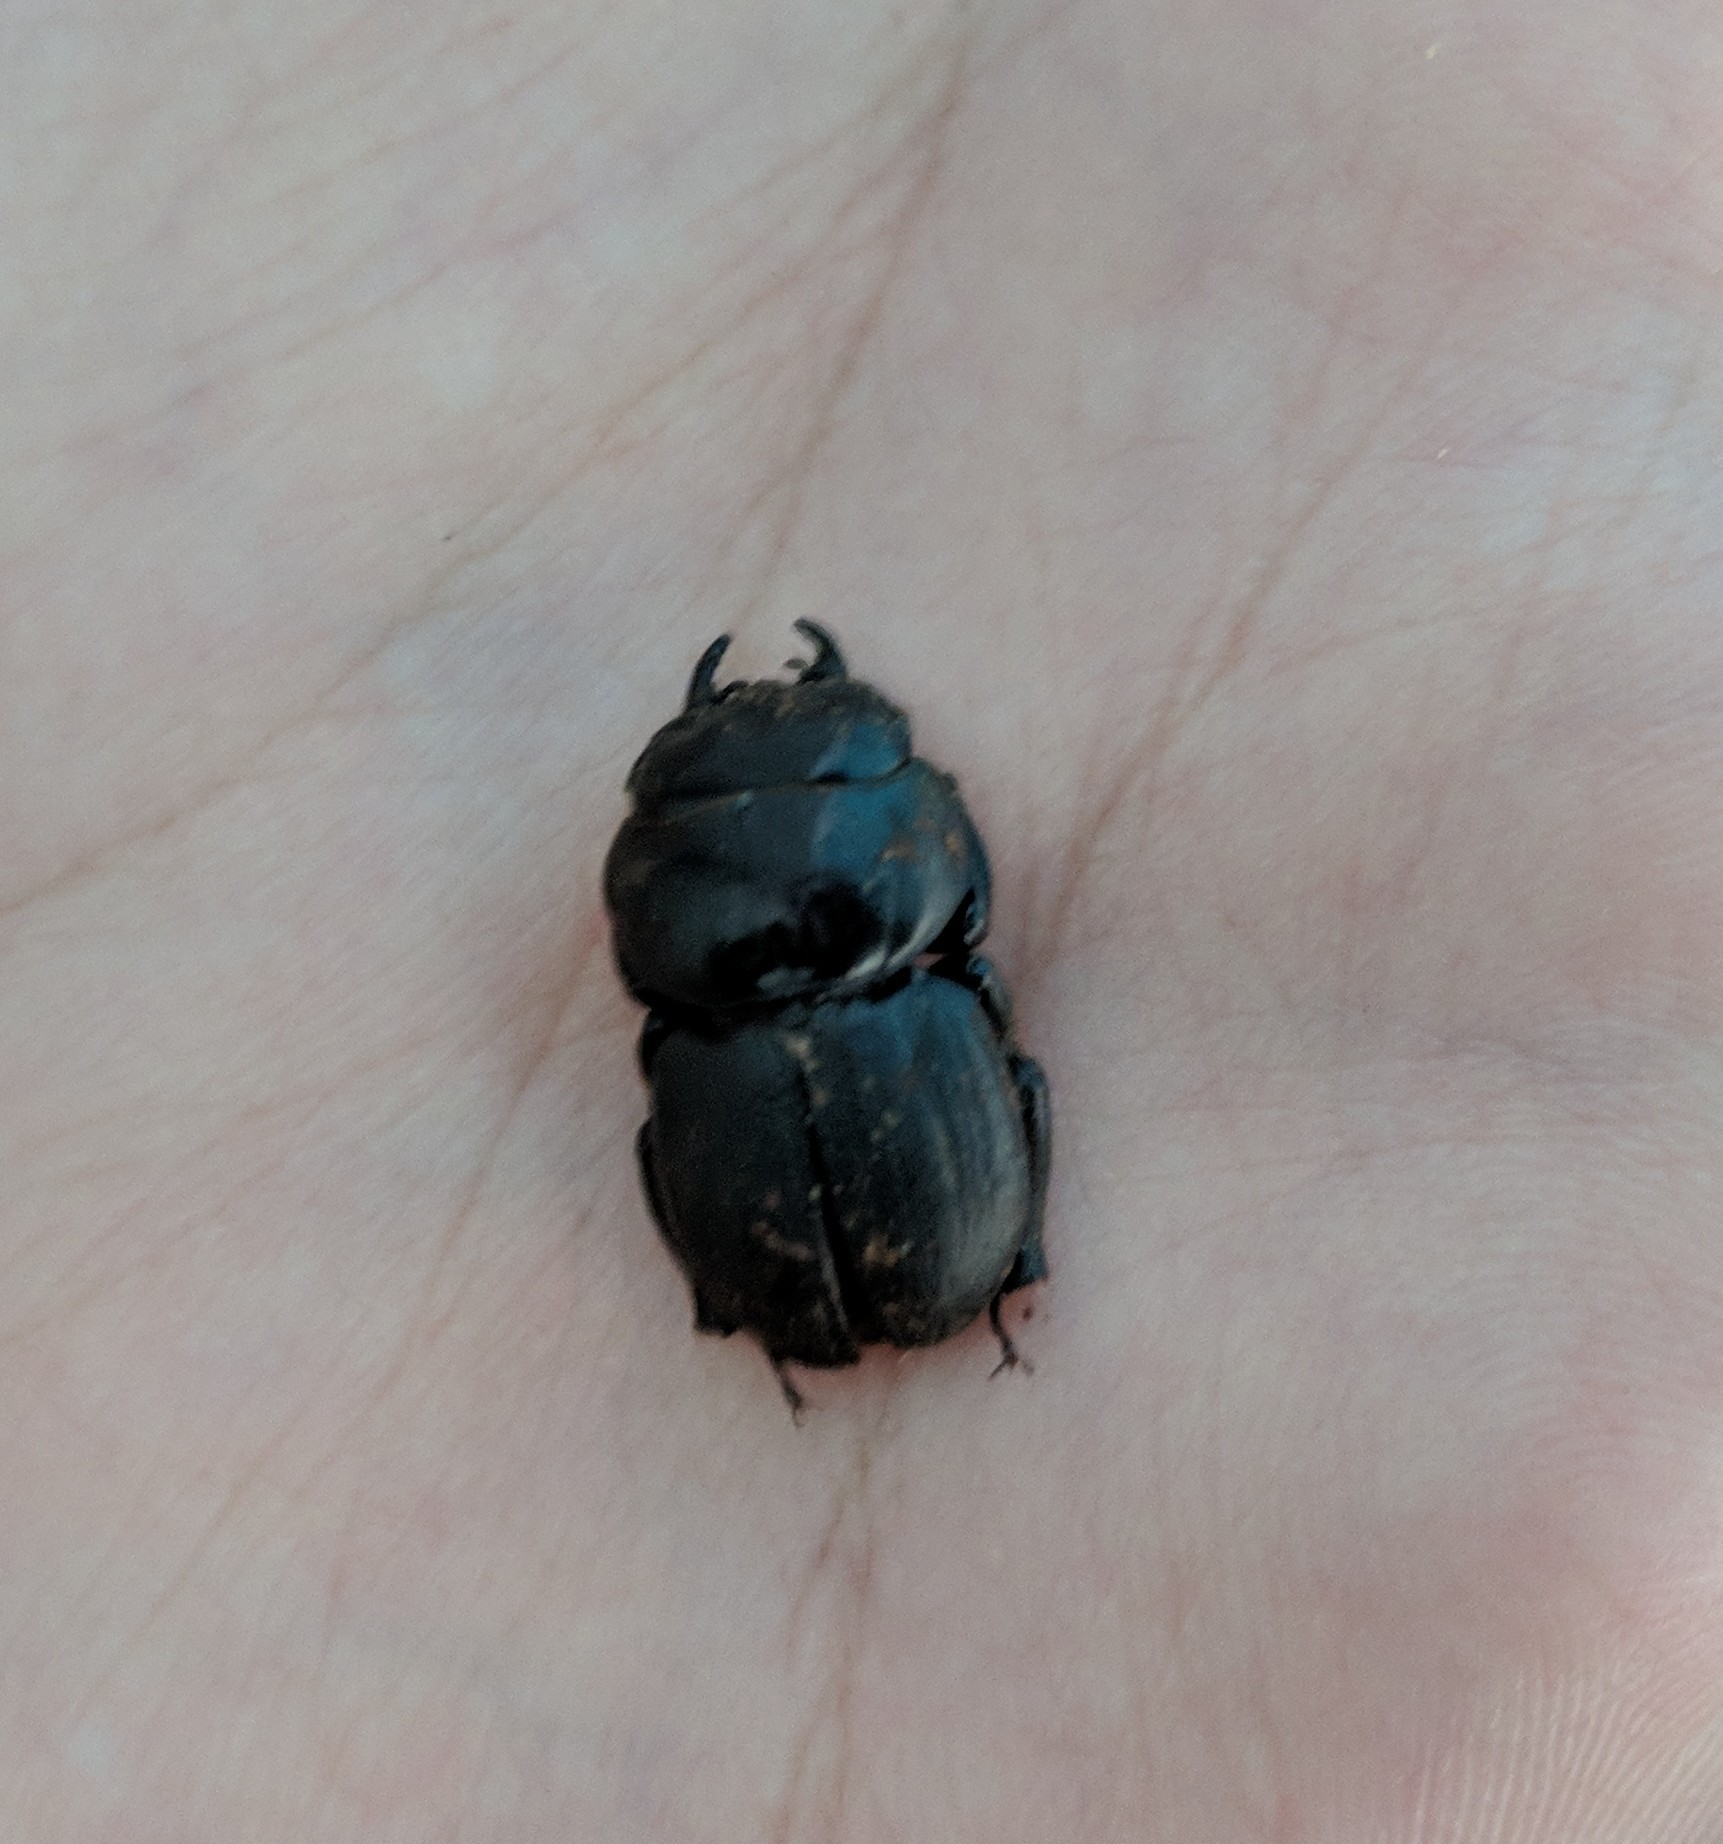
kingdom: Animalia
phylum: Arthropoda
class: Insecta
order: Coleoptera
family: Lucanidae
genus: Apterocyclus
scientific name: Apterocyclus honoluluensis
